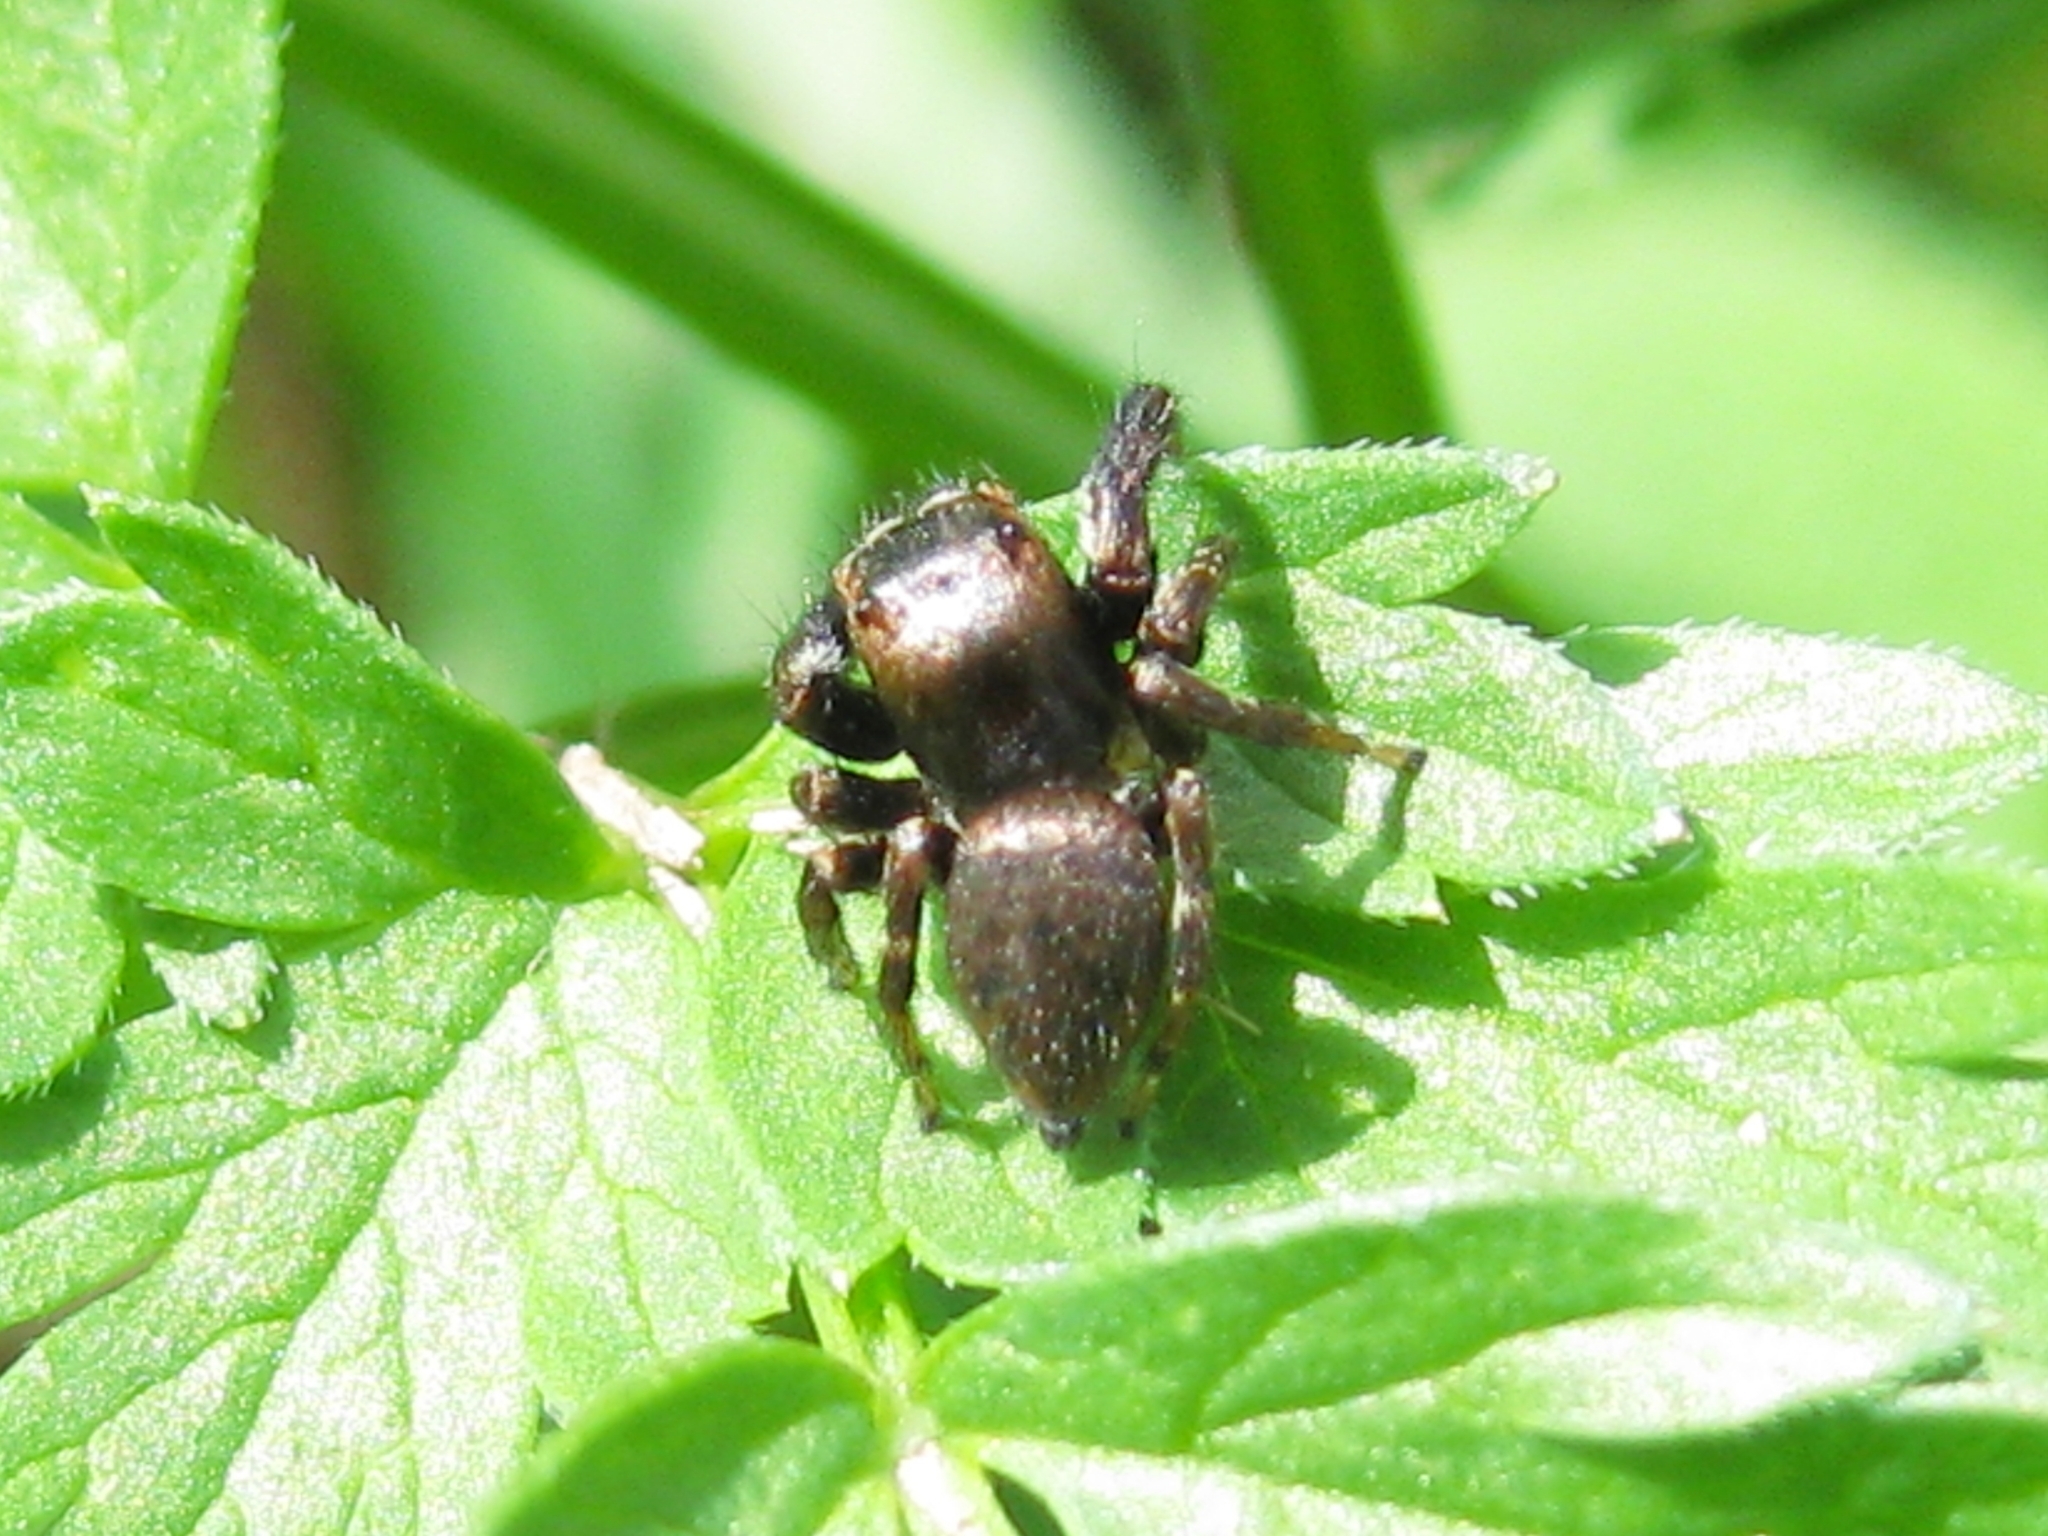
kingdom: Animalia
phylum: Arthropoda
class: Arachnida
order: Araneae
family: Salticidae
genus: Evarcha
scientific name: Evarcha arcuata
